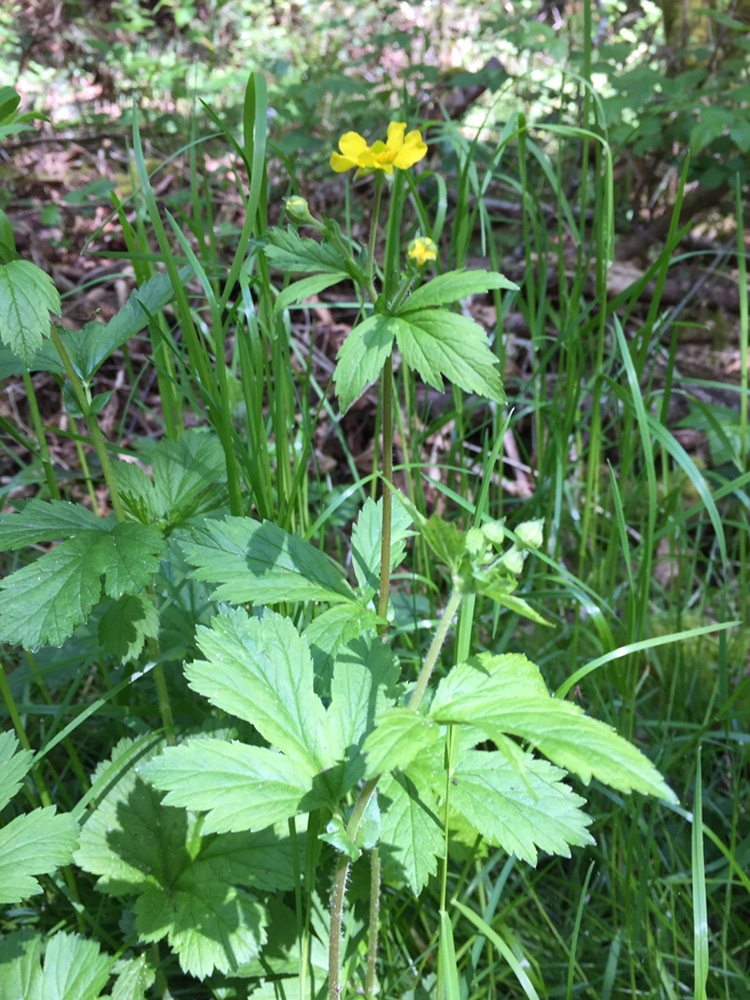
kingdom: Plantae
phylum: Tracheophyta
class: Magnoliopsida
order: Rosales
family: Rosaceae
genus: Geum
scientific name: Geum macrophyllum
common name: Large-leaved avens
